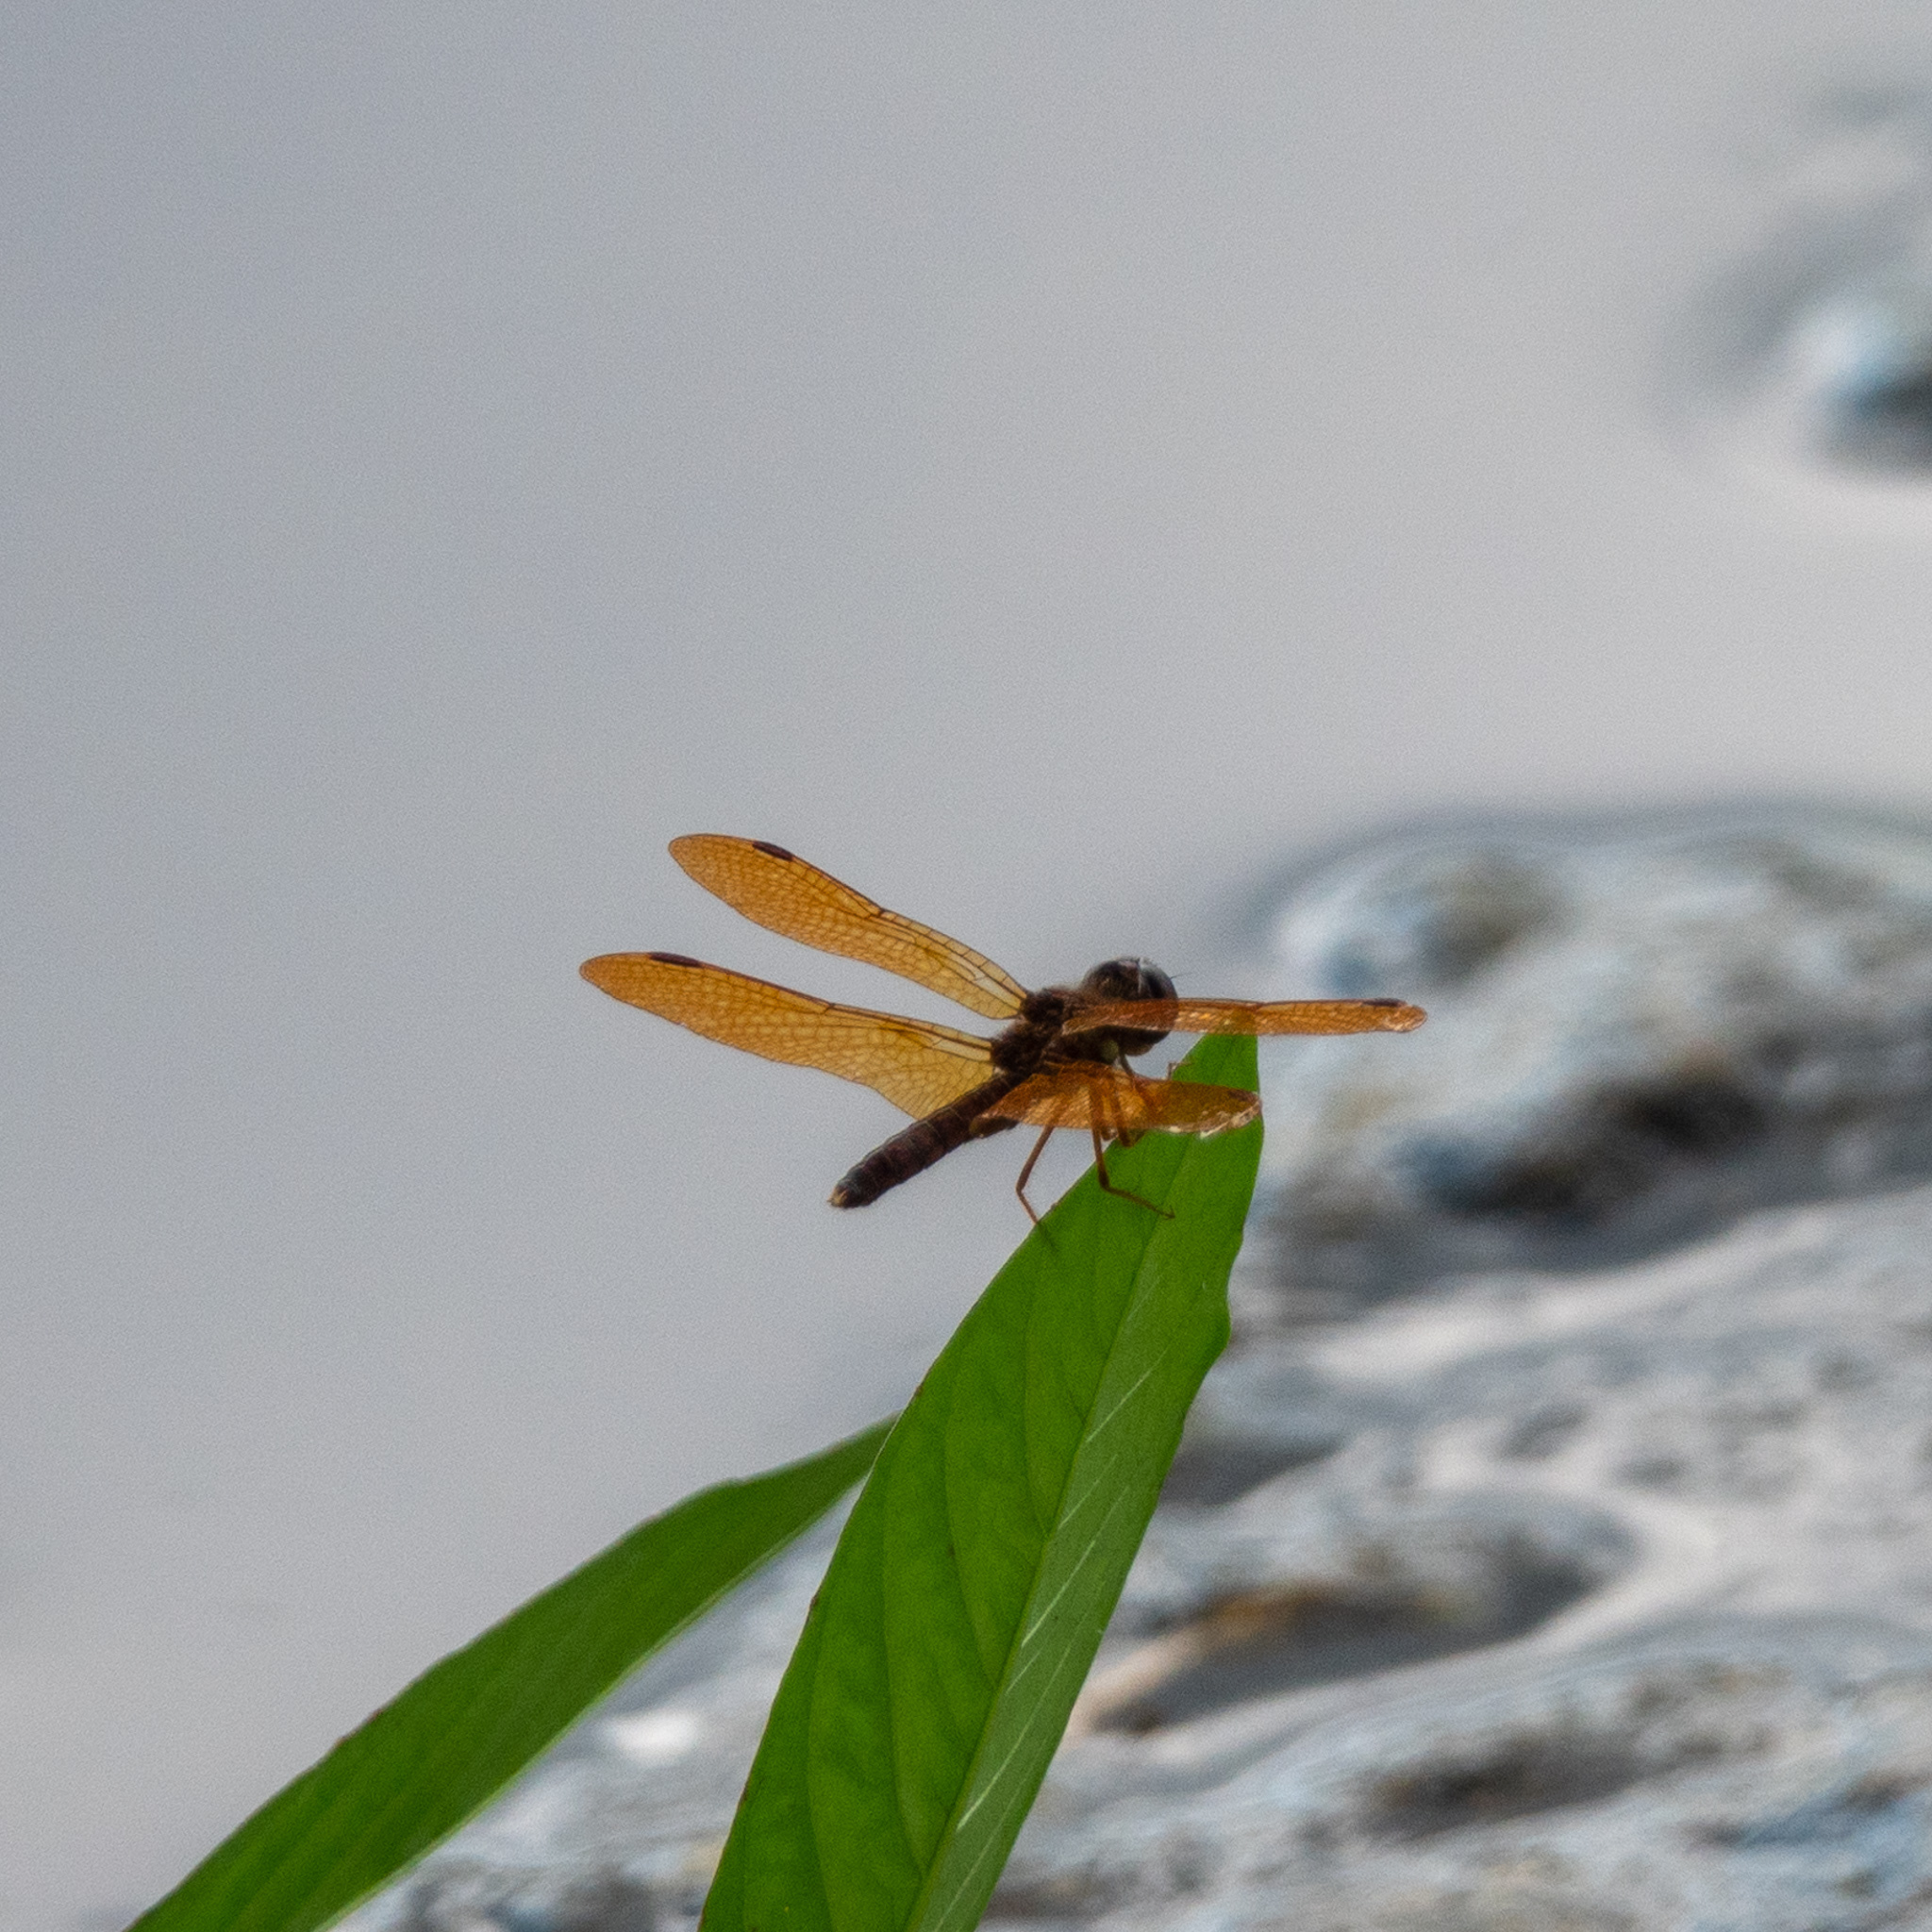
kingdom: Animalia
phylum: Arthropoda
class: Insecta
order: Odonata
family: Libellulidae
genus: Perithemis
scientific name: Perithemis tenera
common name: Eastern amberwing
